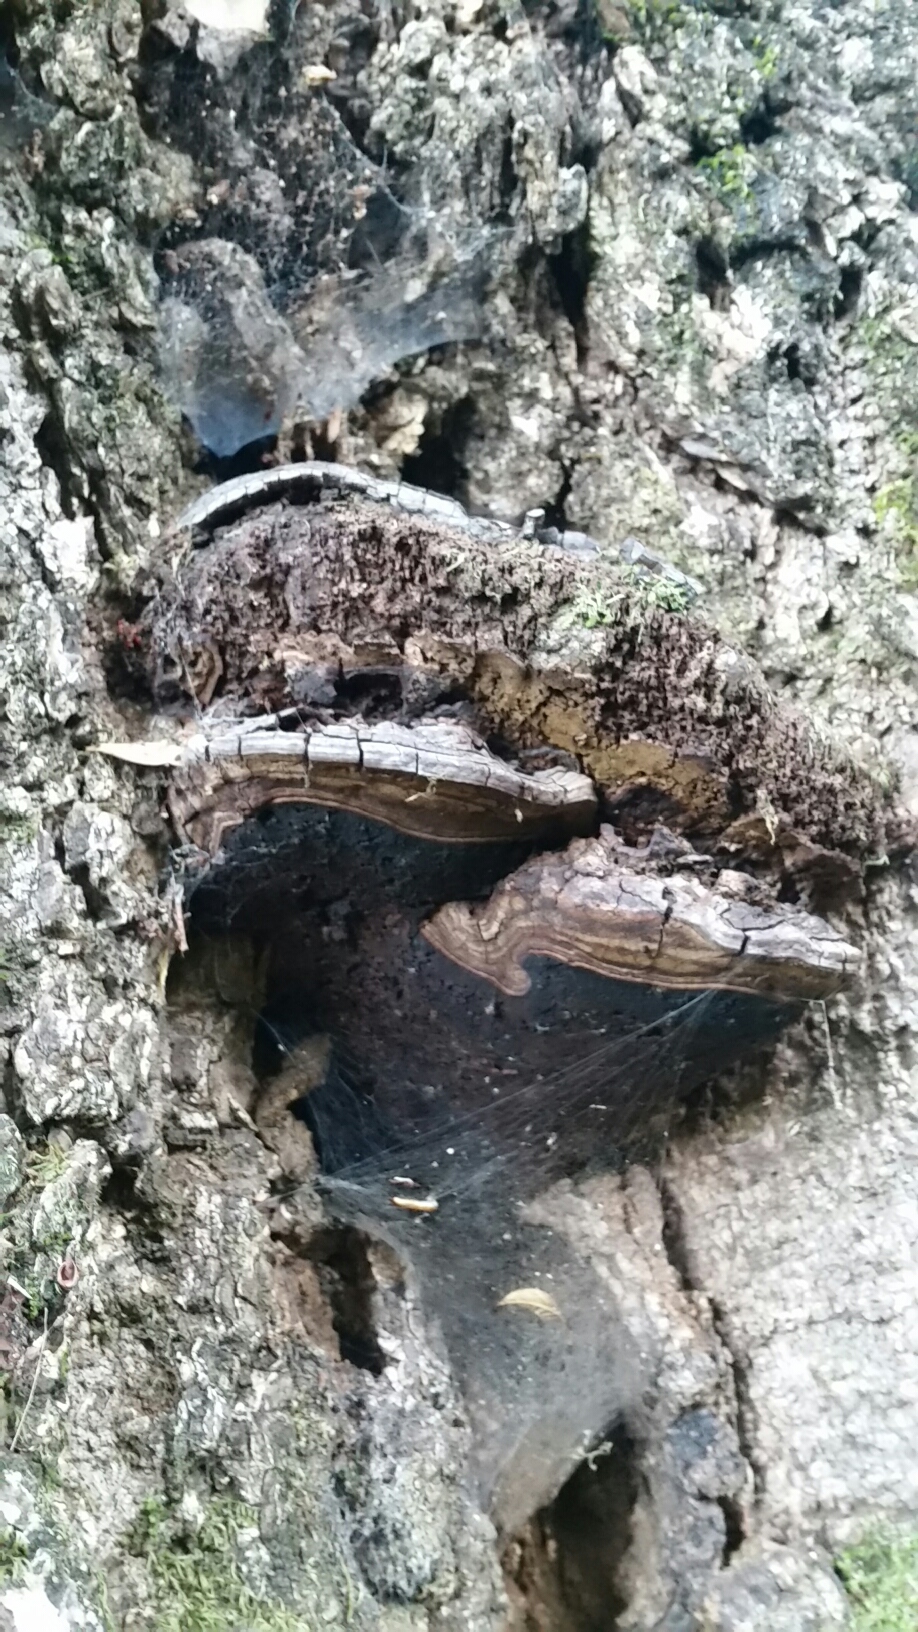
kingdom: Fungi
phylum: Basidiomycota
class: Agaricomycetes
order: Polyporales
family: Polyporaceae
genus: Ganoderma
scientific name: Ganoderma brownii
